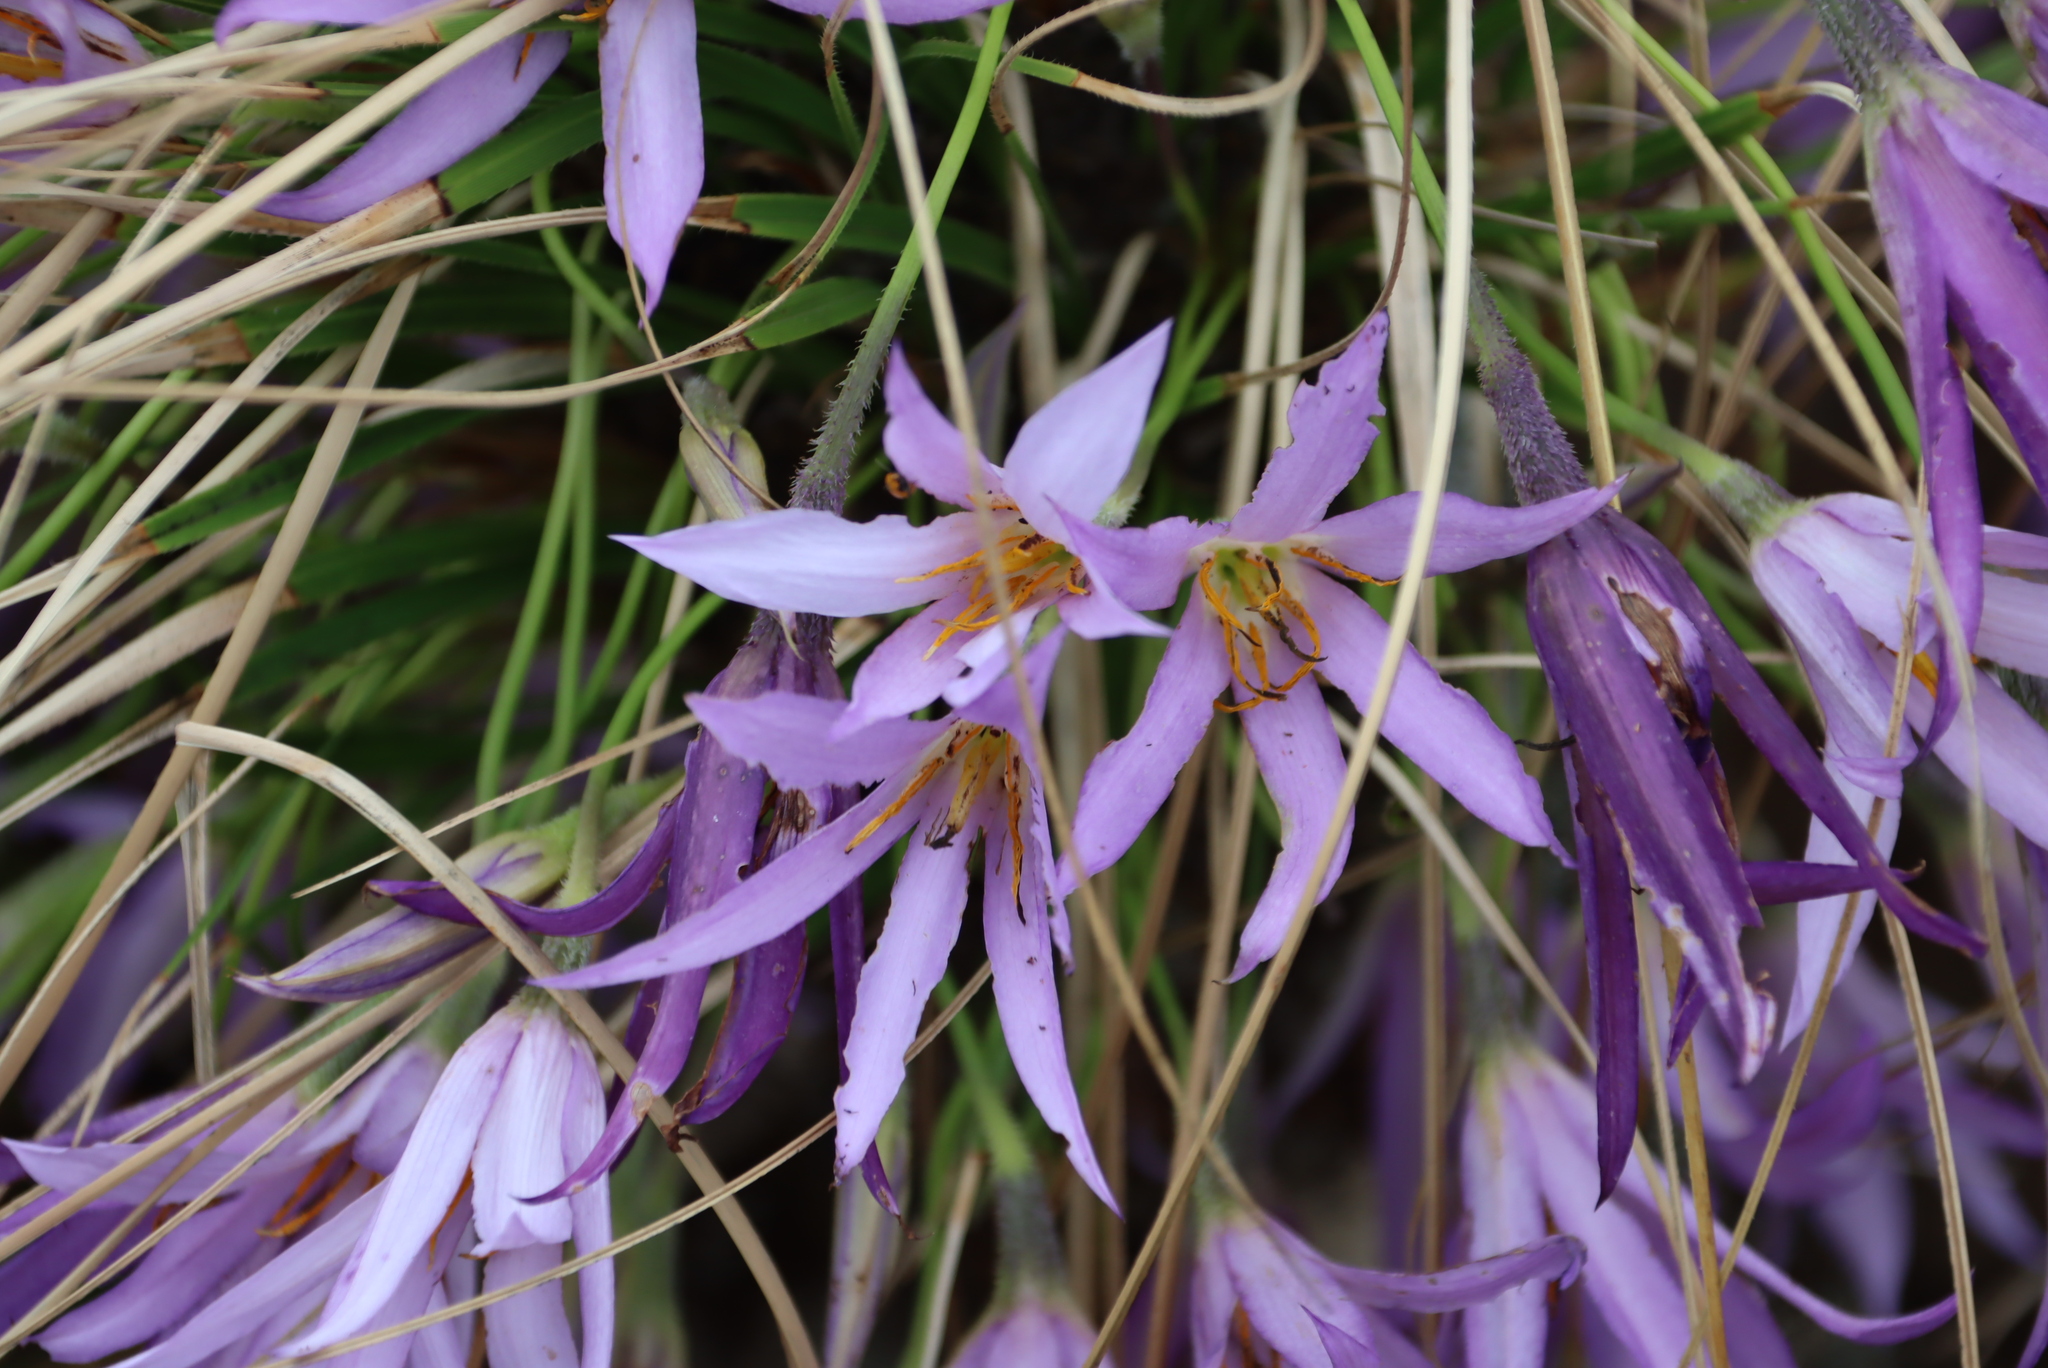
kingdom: Plantae
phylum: Tracheophyta
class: Liliopsida
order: Pandanales
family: Velloziaceae
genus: Xerophyta
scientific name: Xerophyta retinervis
